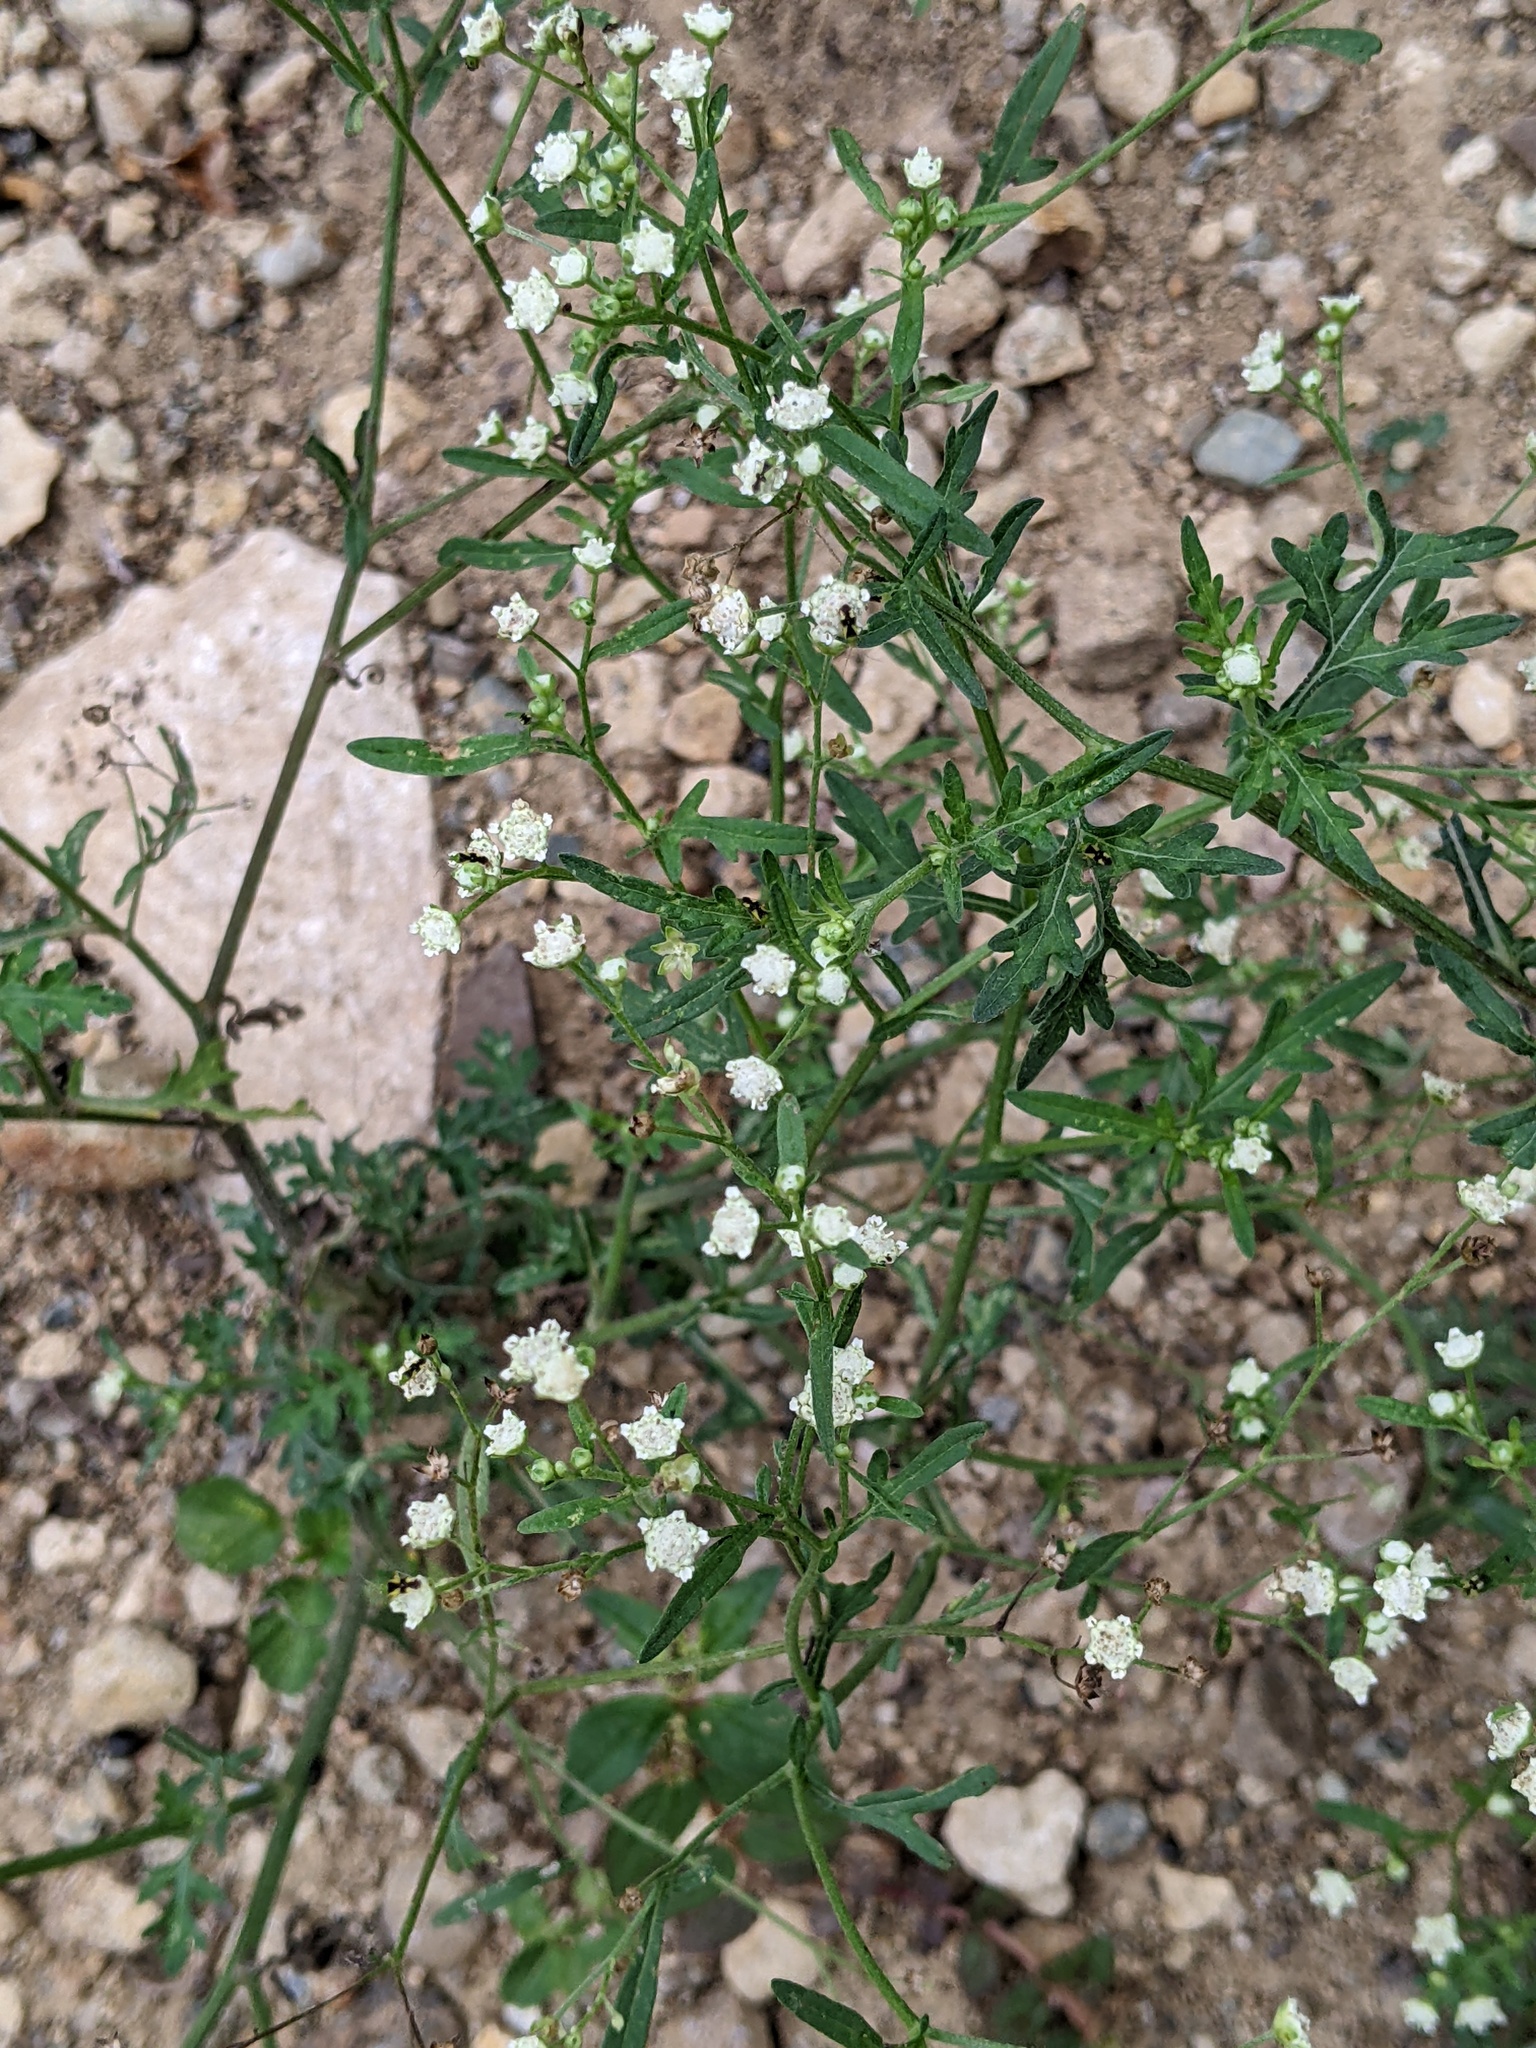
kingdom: Plantae
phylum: Tracheophyta
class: Magnoliopsida
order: Asterales
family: Asteraceae
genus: Parthenium
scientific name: Parthenium hysterophorus
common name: Santa maria feverfew
